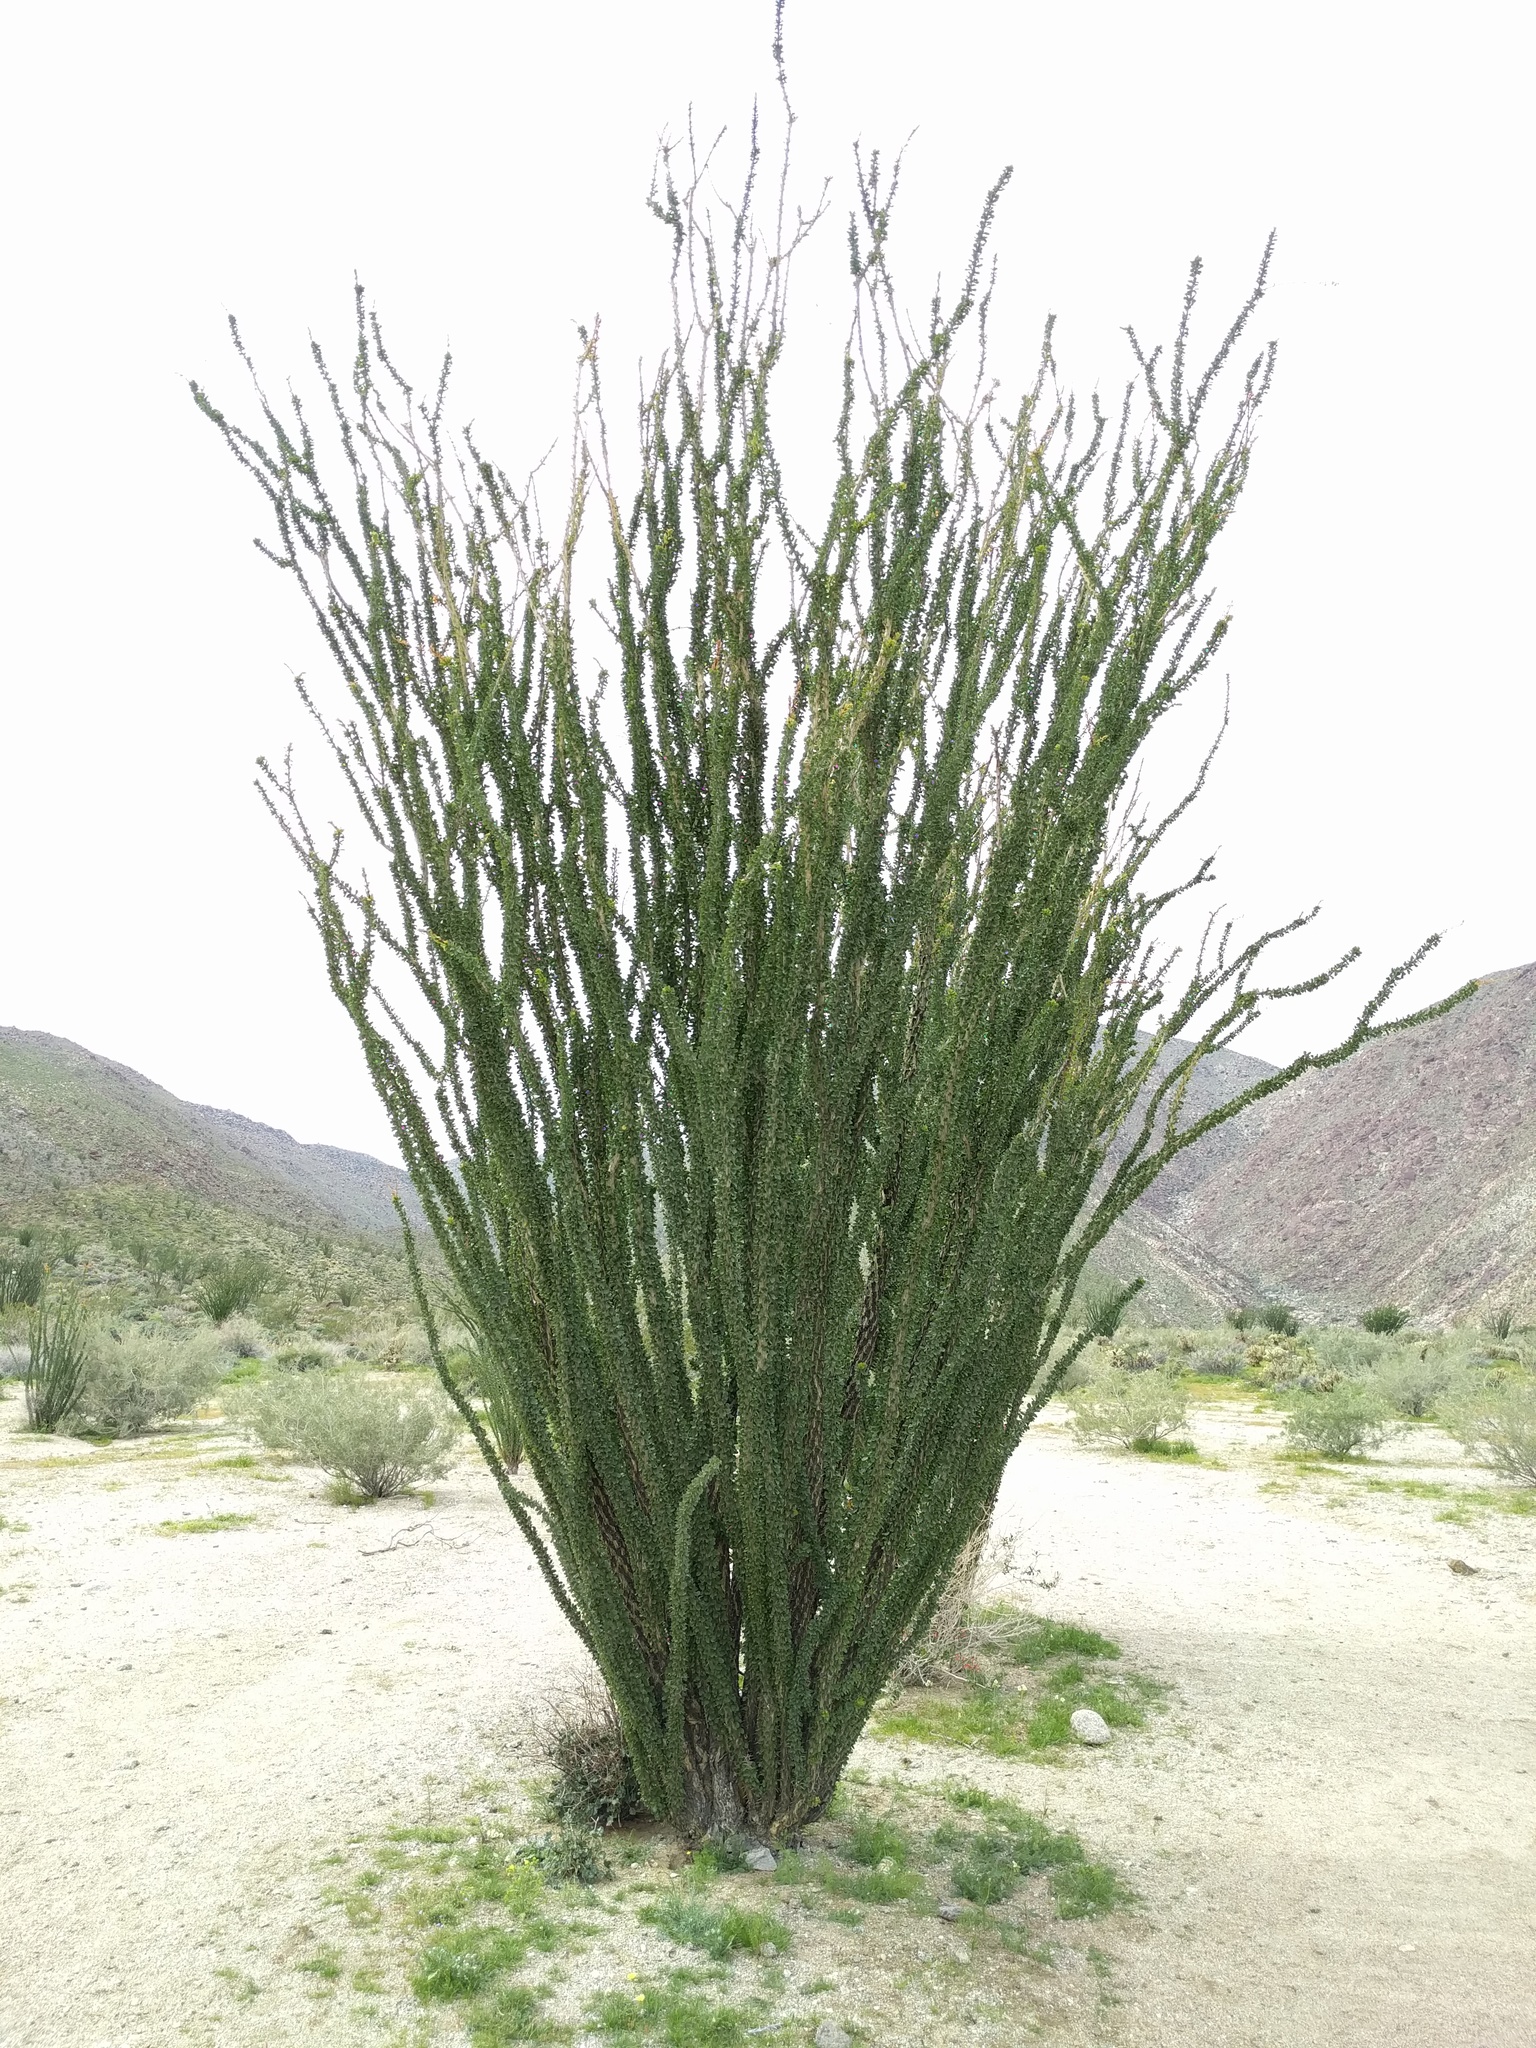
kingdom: Plantae
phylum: Tracheophyta
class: Magnoliopsida
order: Ericales
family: Fouquieriaceae
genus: Fouquieria
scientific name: Fouquieria splendens
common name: Vine-cactus
